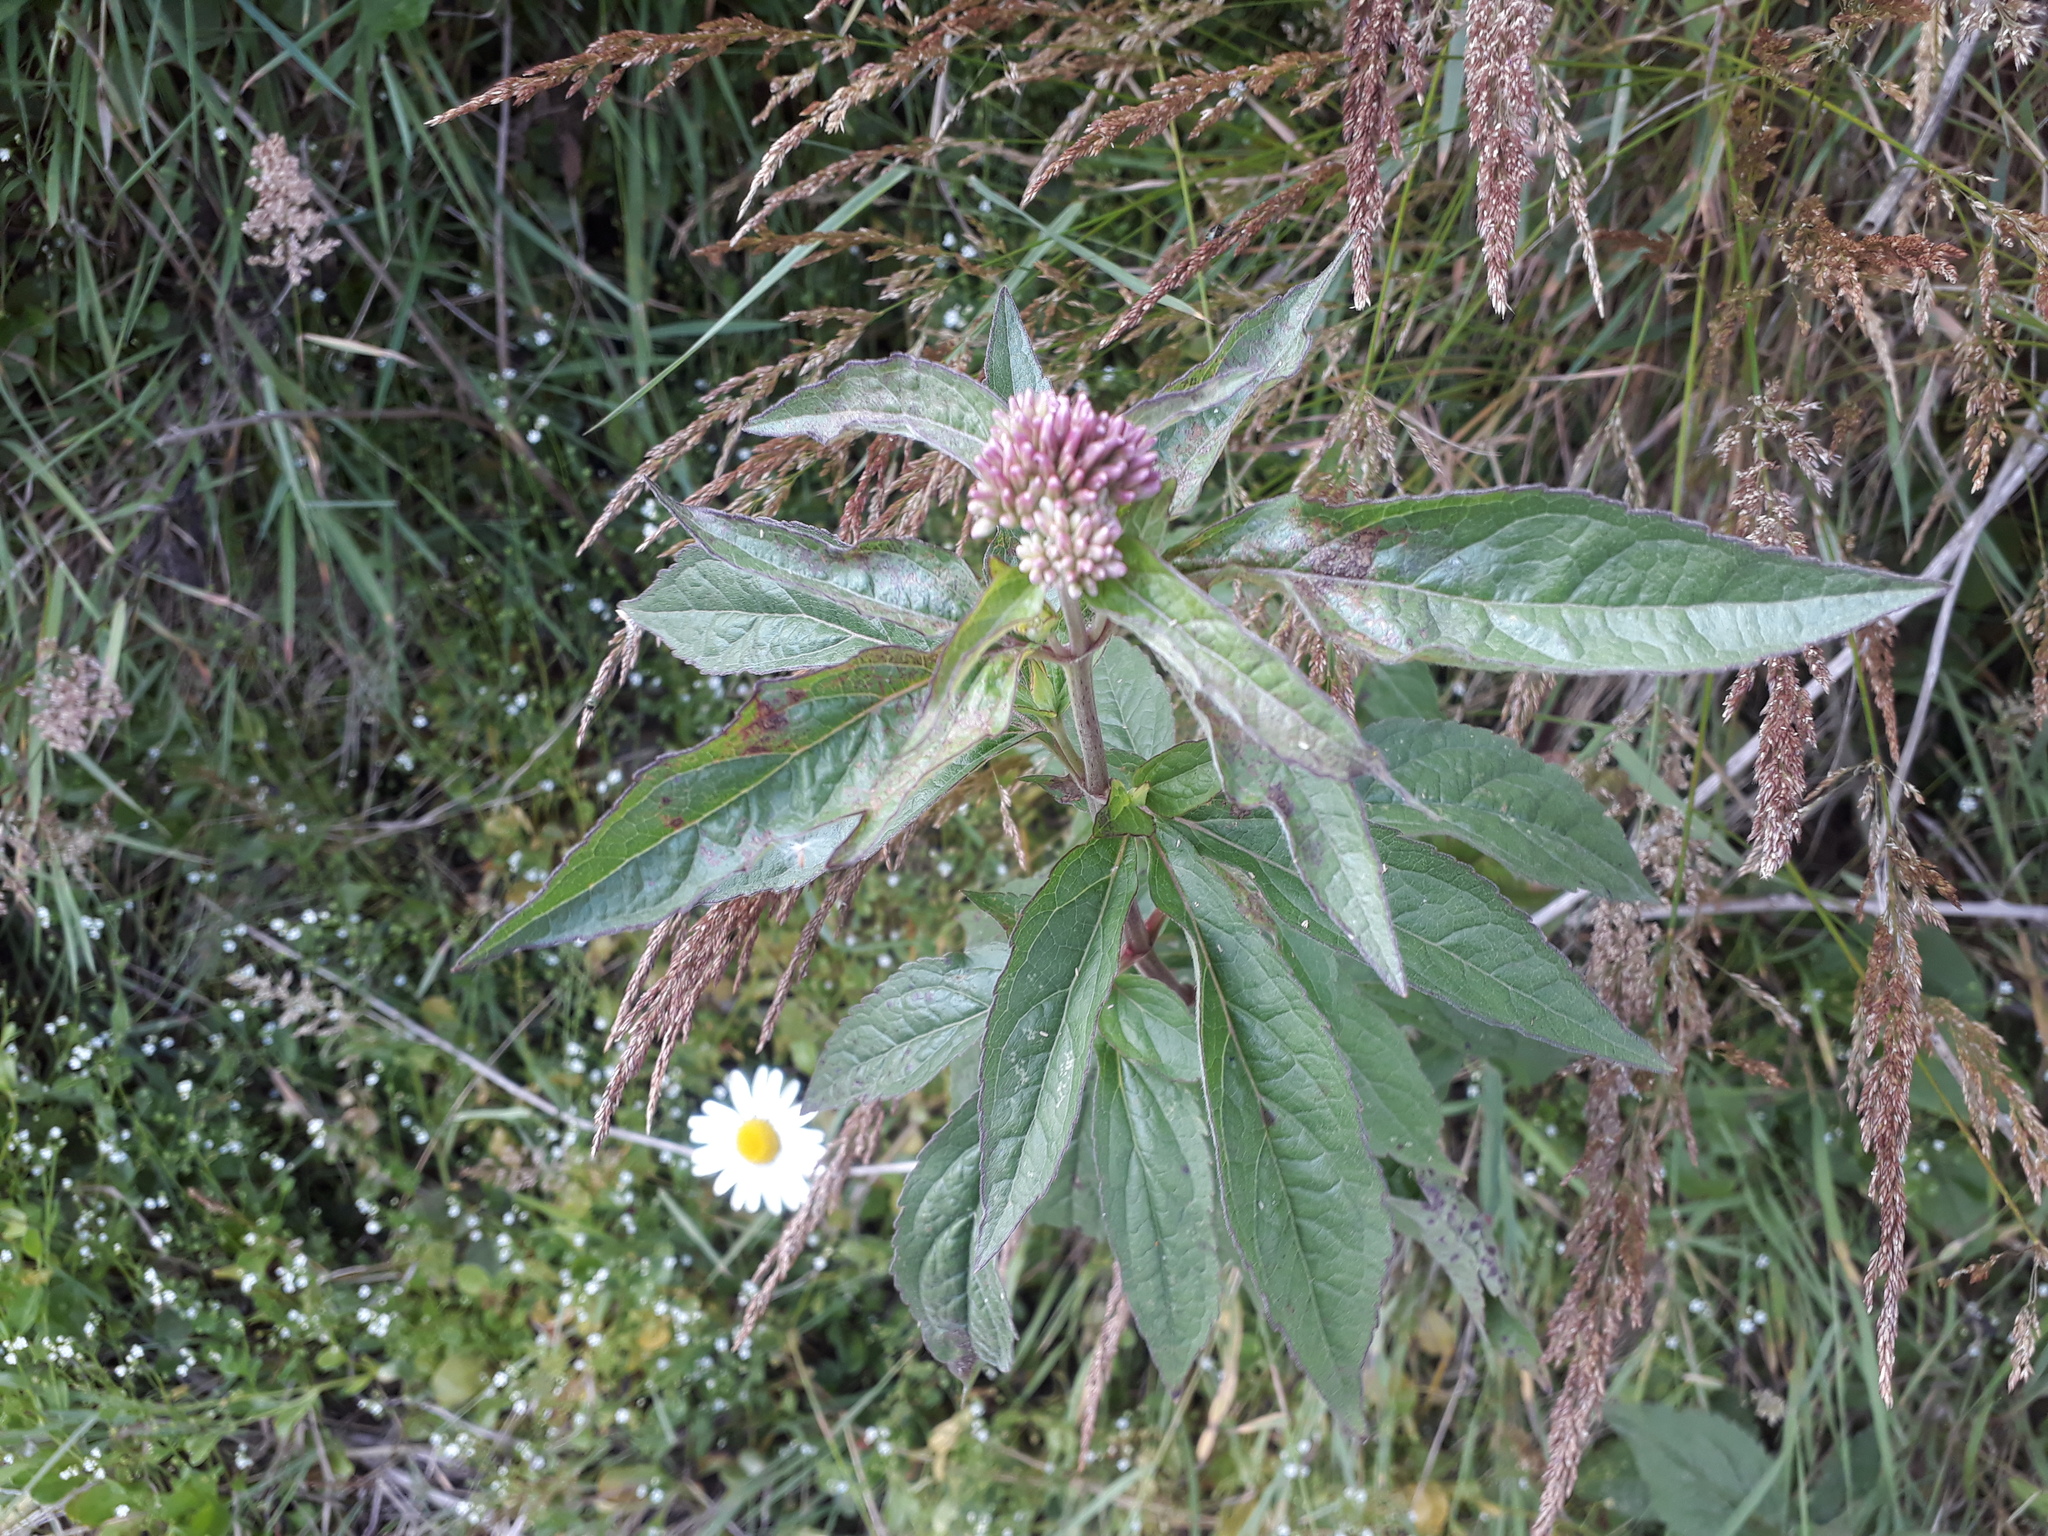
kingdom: Plantae
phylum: Tracheophyta
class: Magnoliopsida
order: Asterales
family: Asteraceae
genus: Eupatorium
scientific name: Eupatorium cannabinum
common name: Hemp-agrimony
